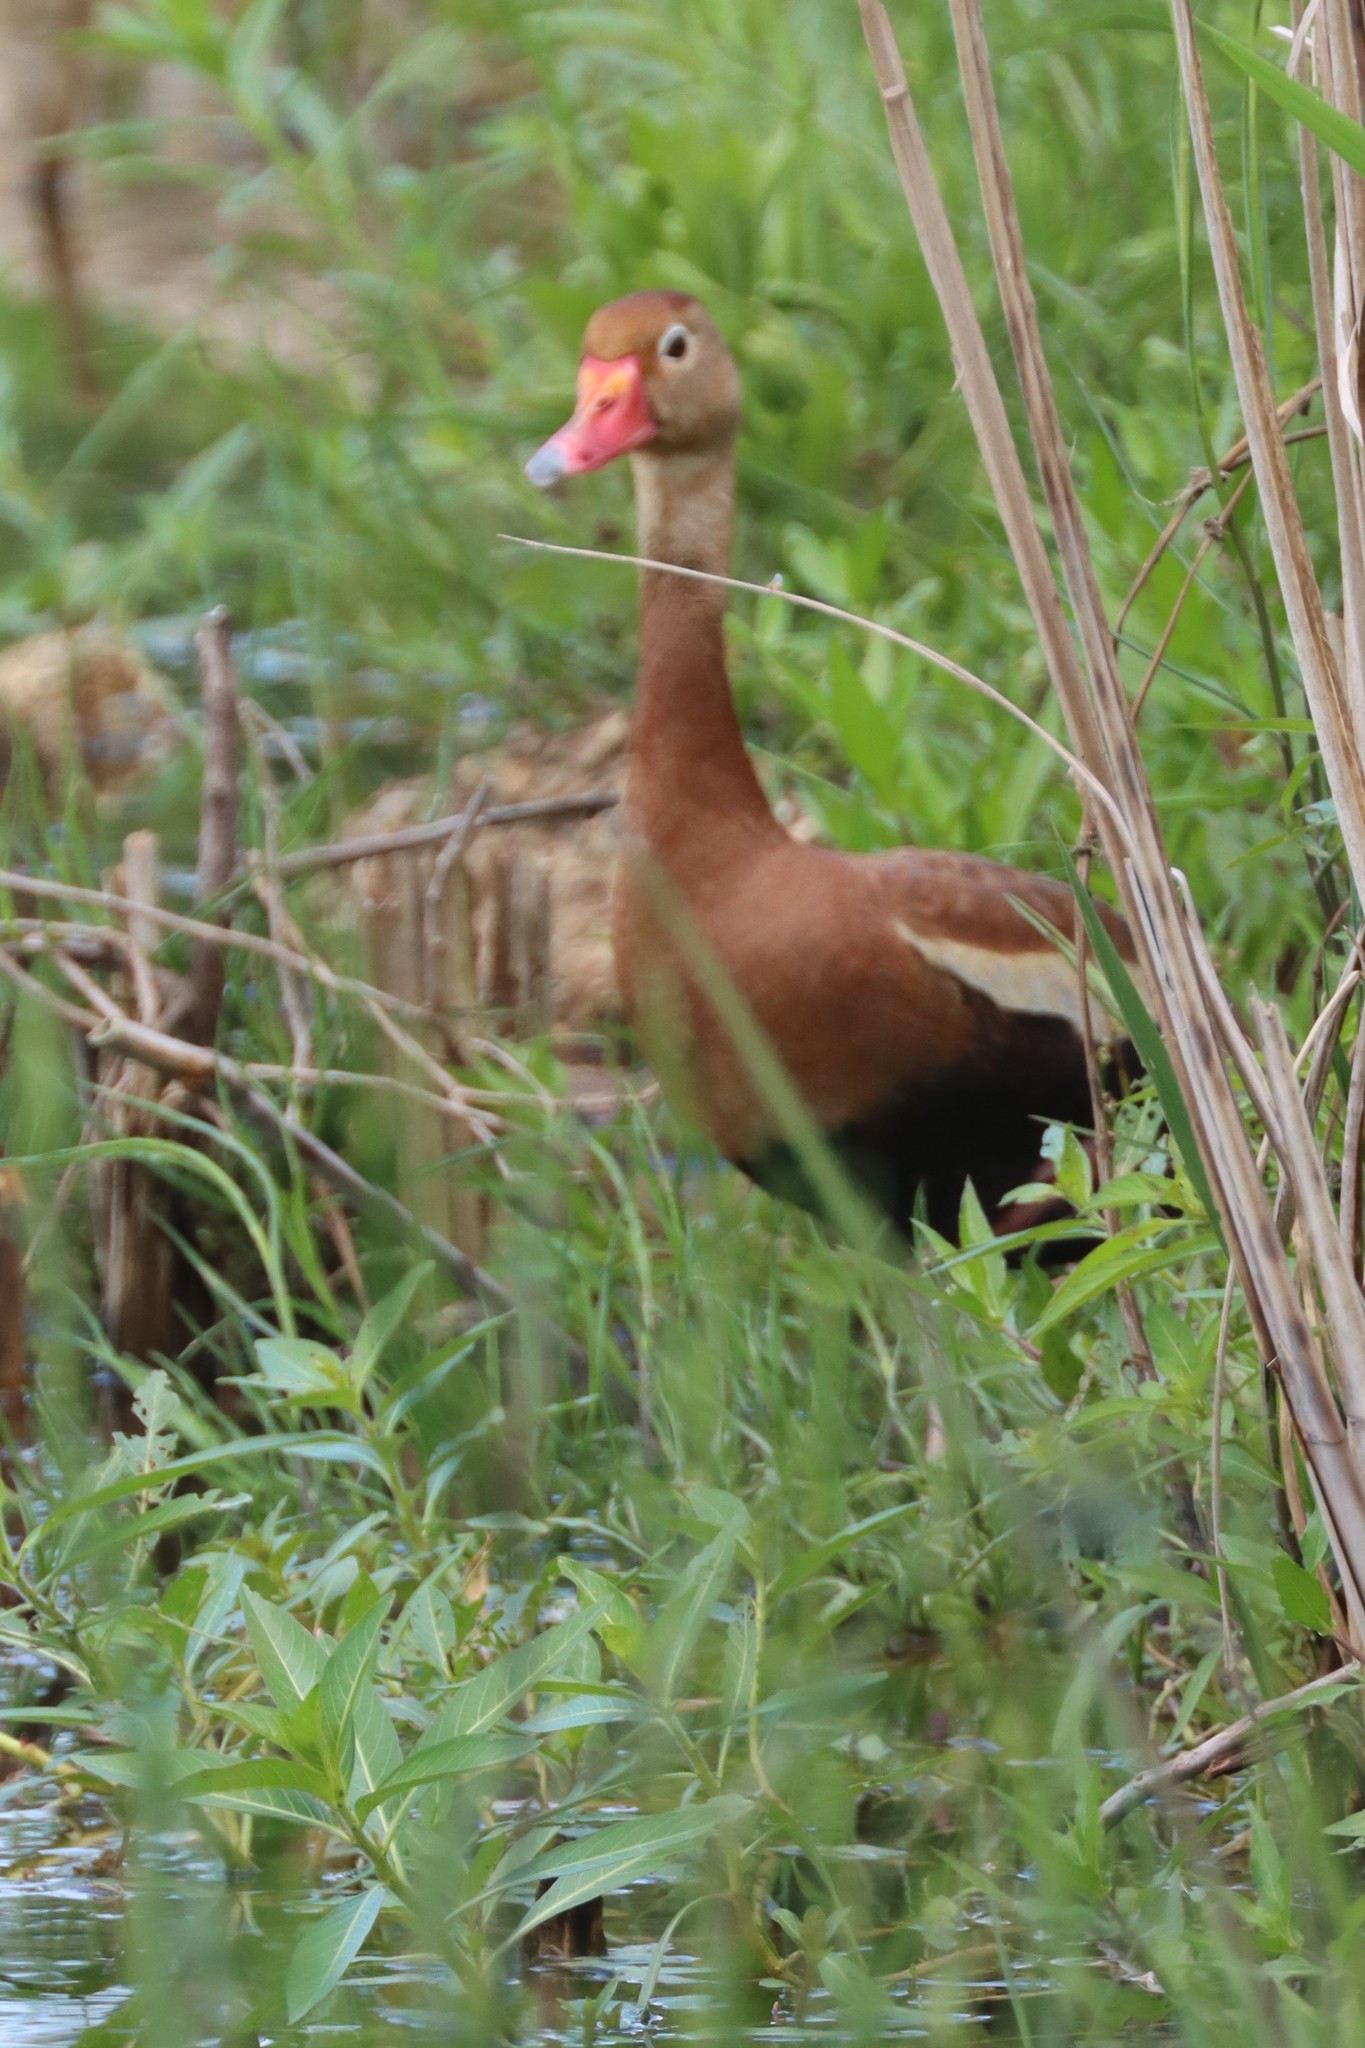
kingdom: Animalia
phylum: Chordata
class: Aves
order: Anseriformes
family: Anatidae
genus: Dendrocygna
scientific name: Dendrocygna autumnalis
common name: Black-bellied whistling duck
